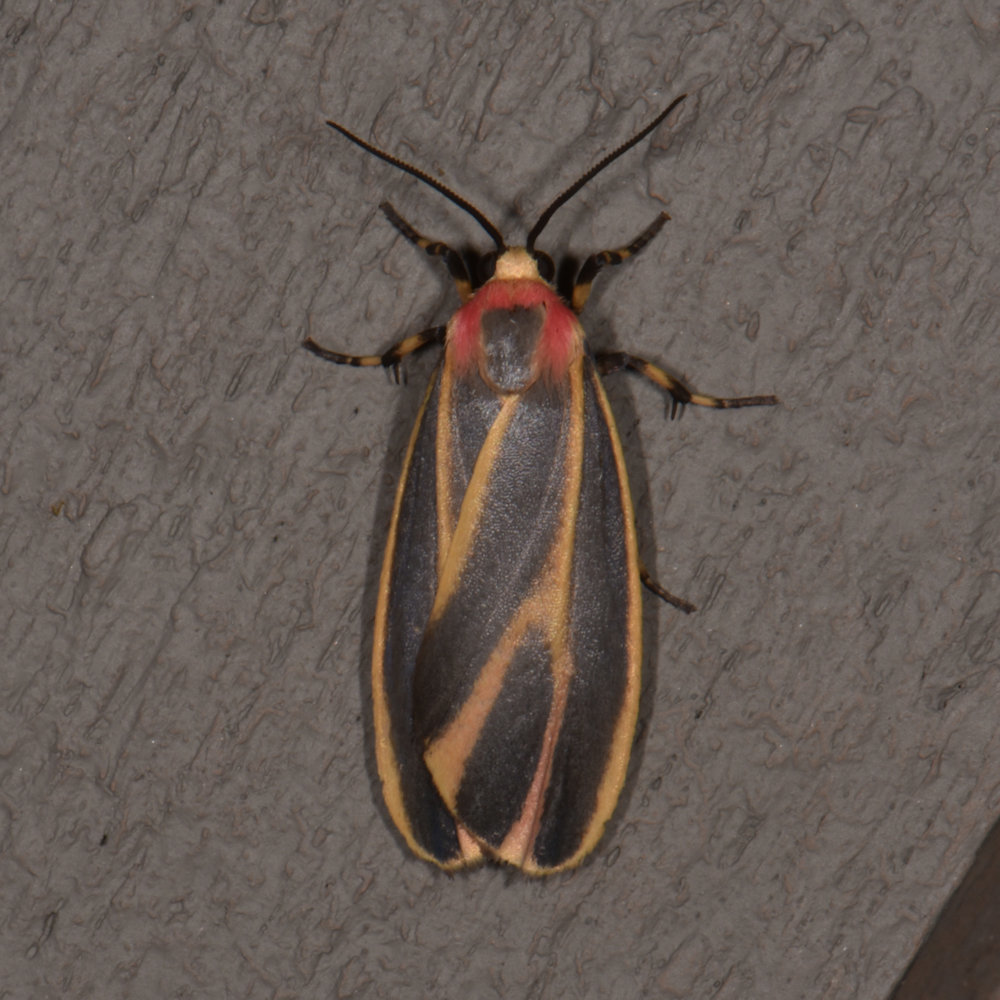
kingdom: Animalia
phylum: Arthropoda
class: Insecta
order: Lepidoptera
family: Erebidae
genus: Hypoprepia
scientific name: Hypoprepia fucosa
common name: Painted lichen moth
